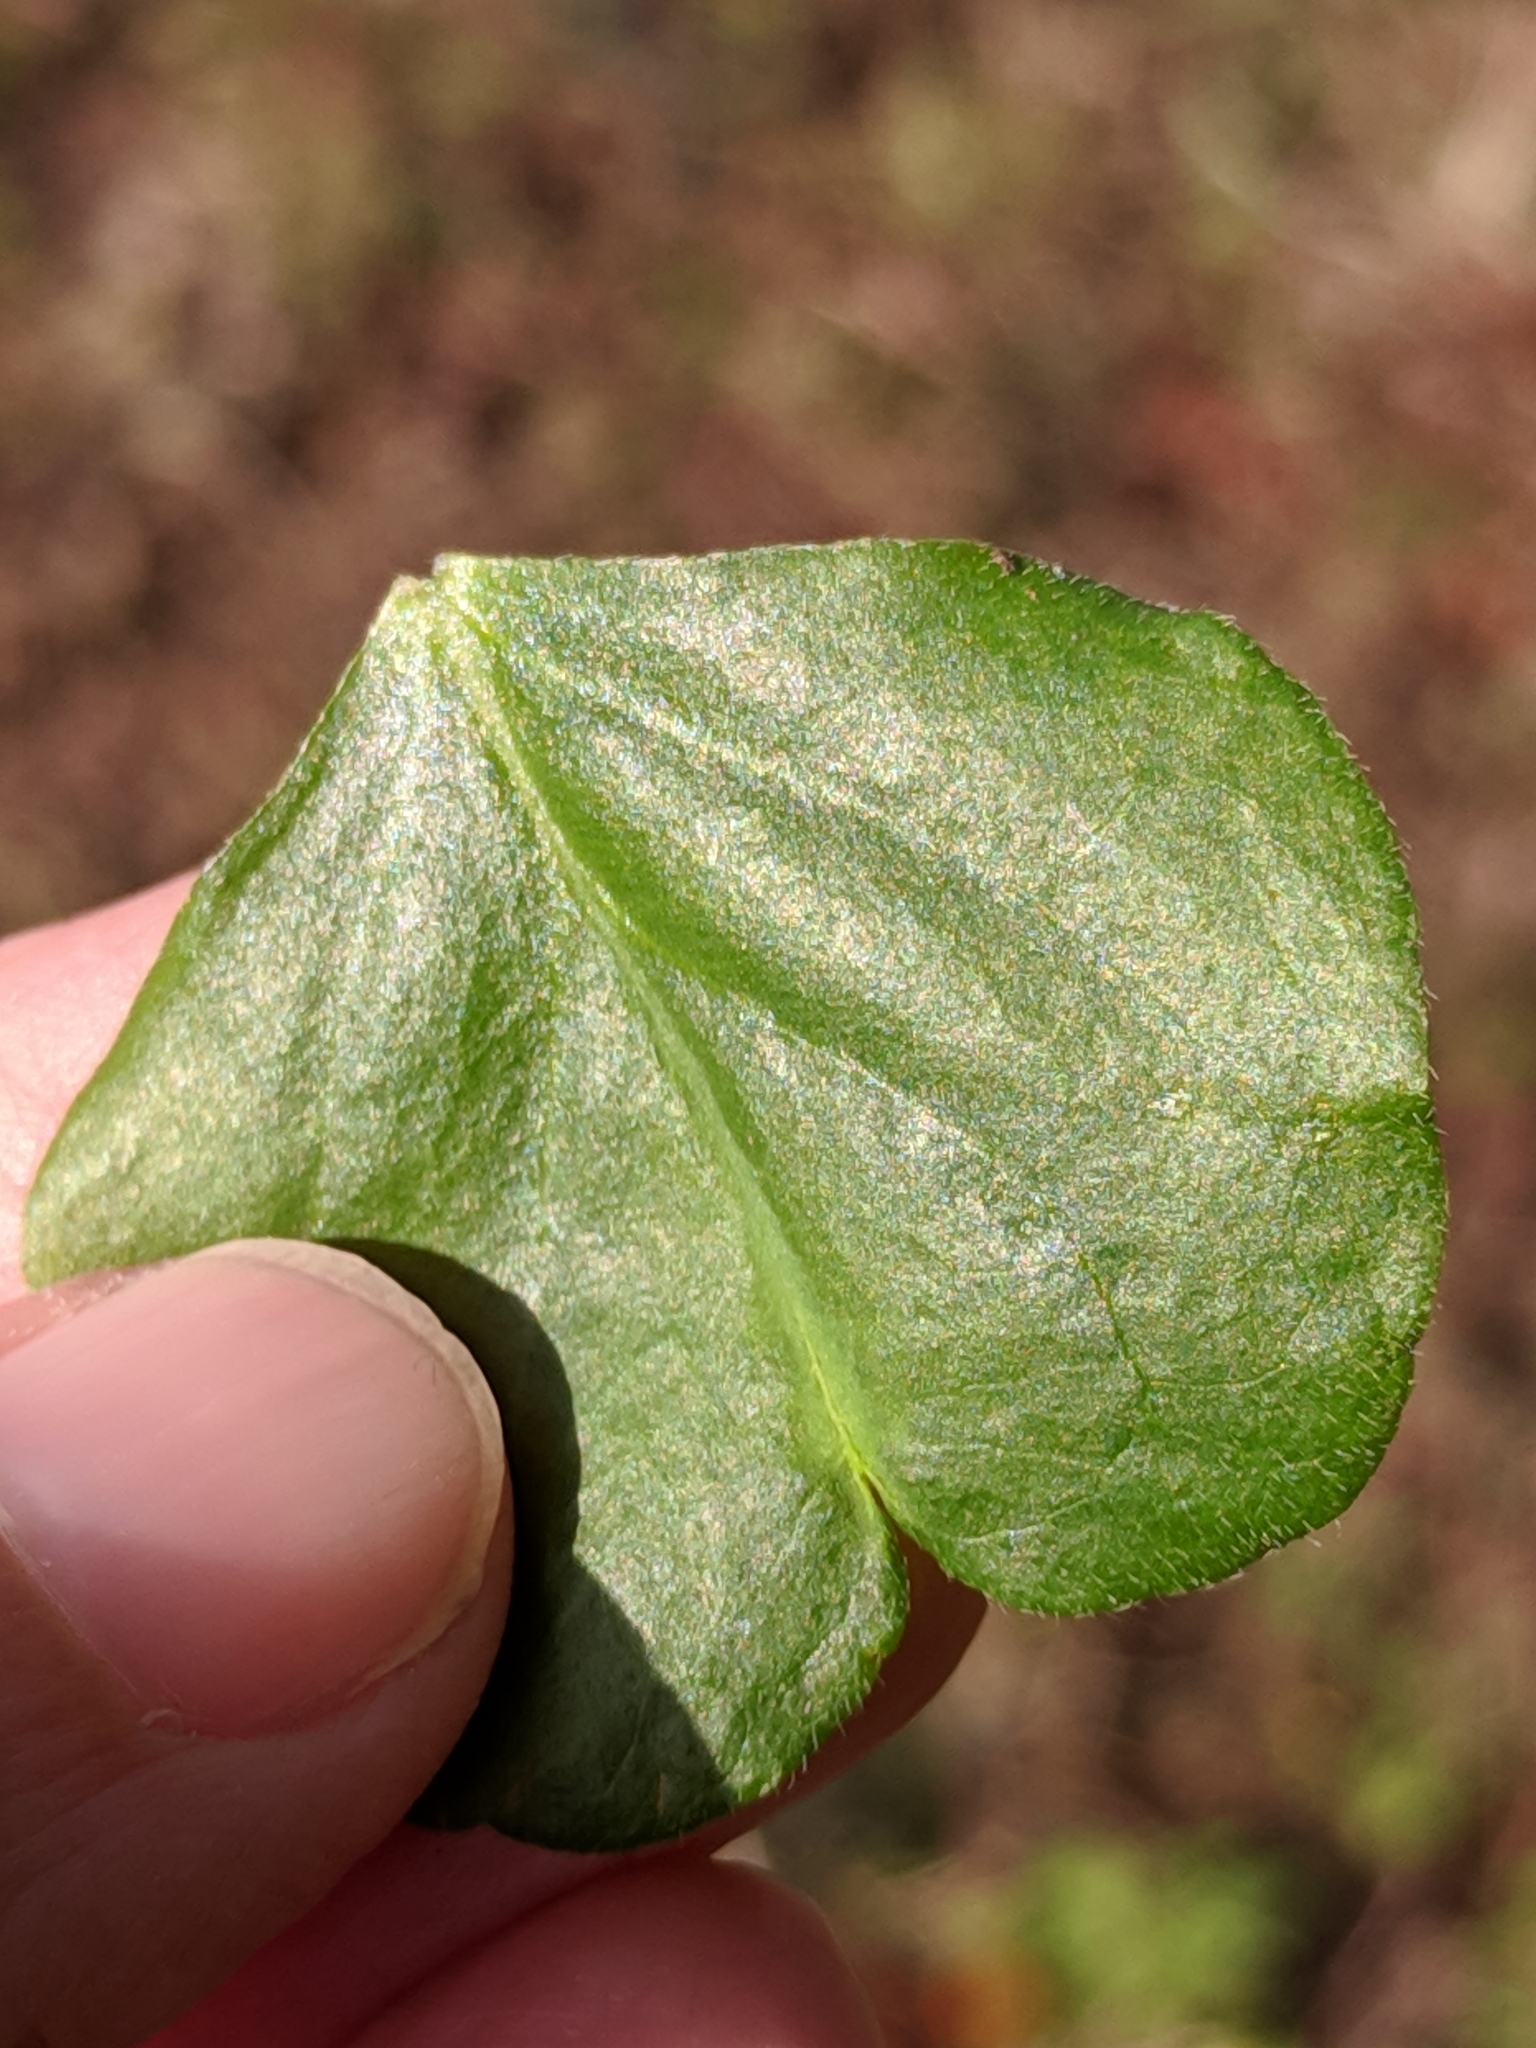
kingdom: Plantae
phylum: Tracheophyta
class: Magnoliopsida
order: Oxalidales
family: Oxalidaceae
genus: Oxalis
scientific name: Oxalis debilis
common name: Large-flowered pink-sorrel
